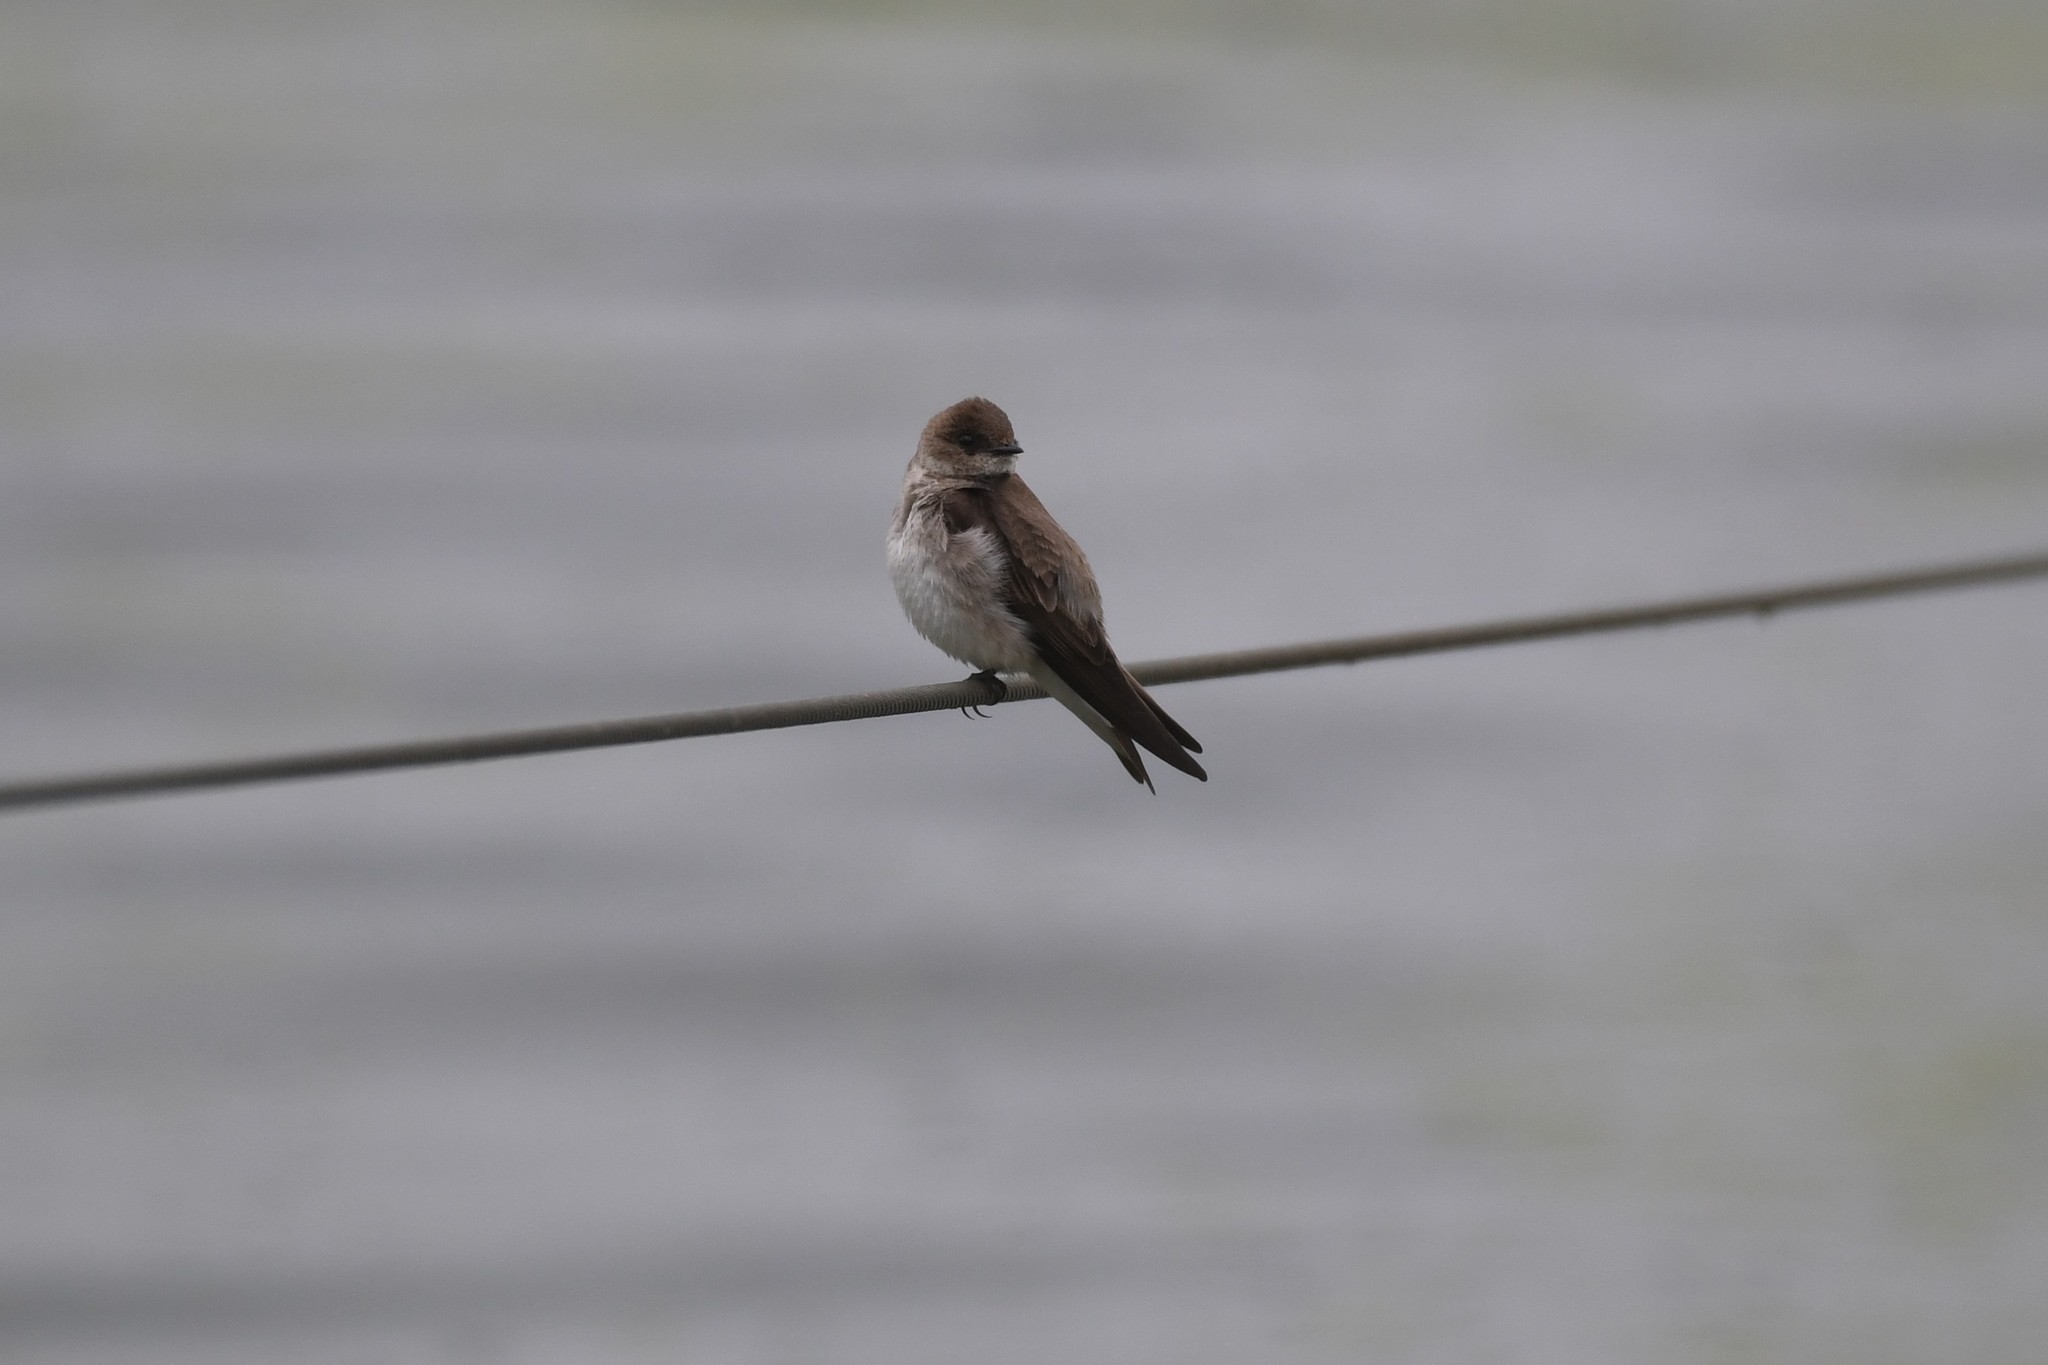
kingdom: Animalia
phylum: Chordata
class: Aves
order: Passeriformes
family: Hirundinidae
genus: Stelgidopteryx
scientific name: Stelgidopteryx serripennis
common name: Northern rough-winged swallow
